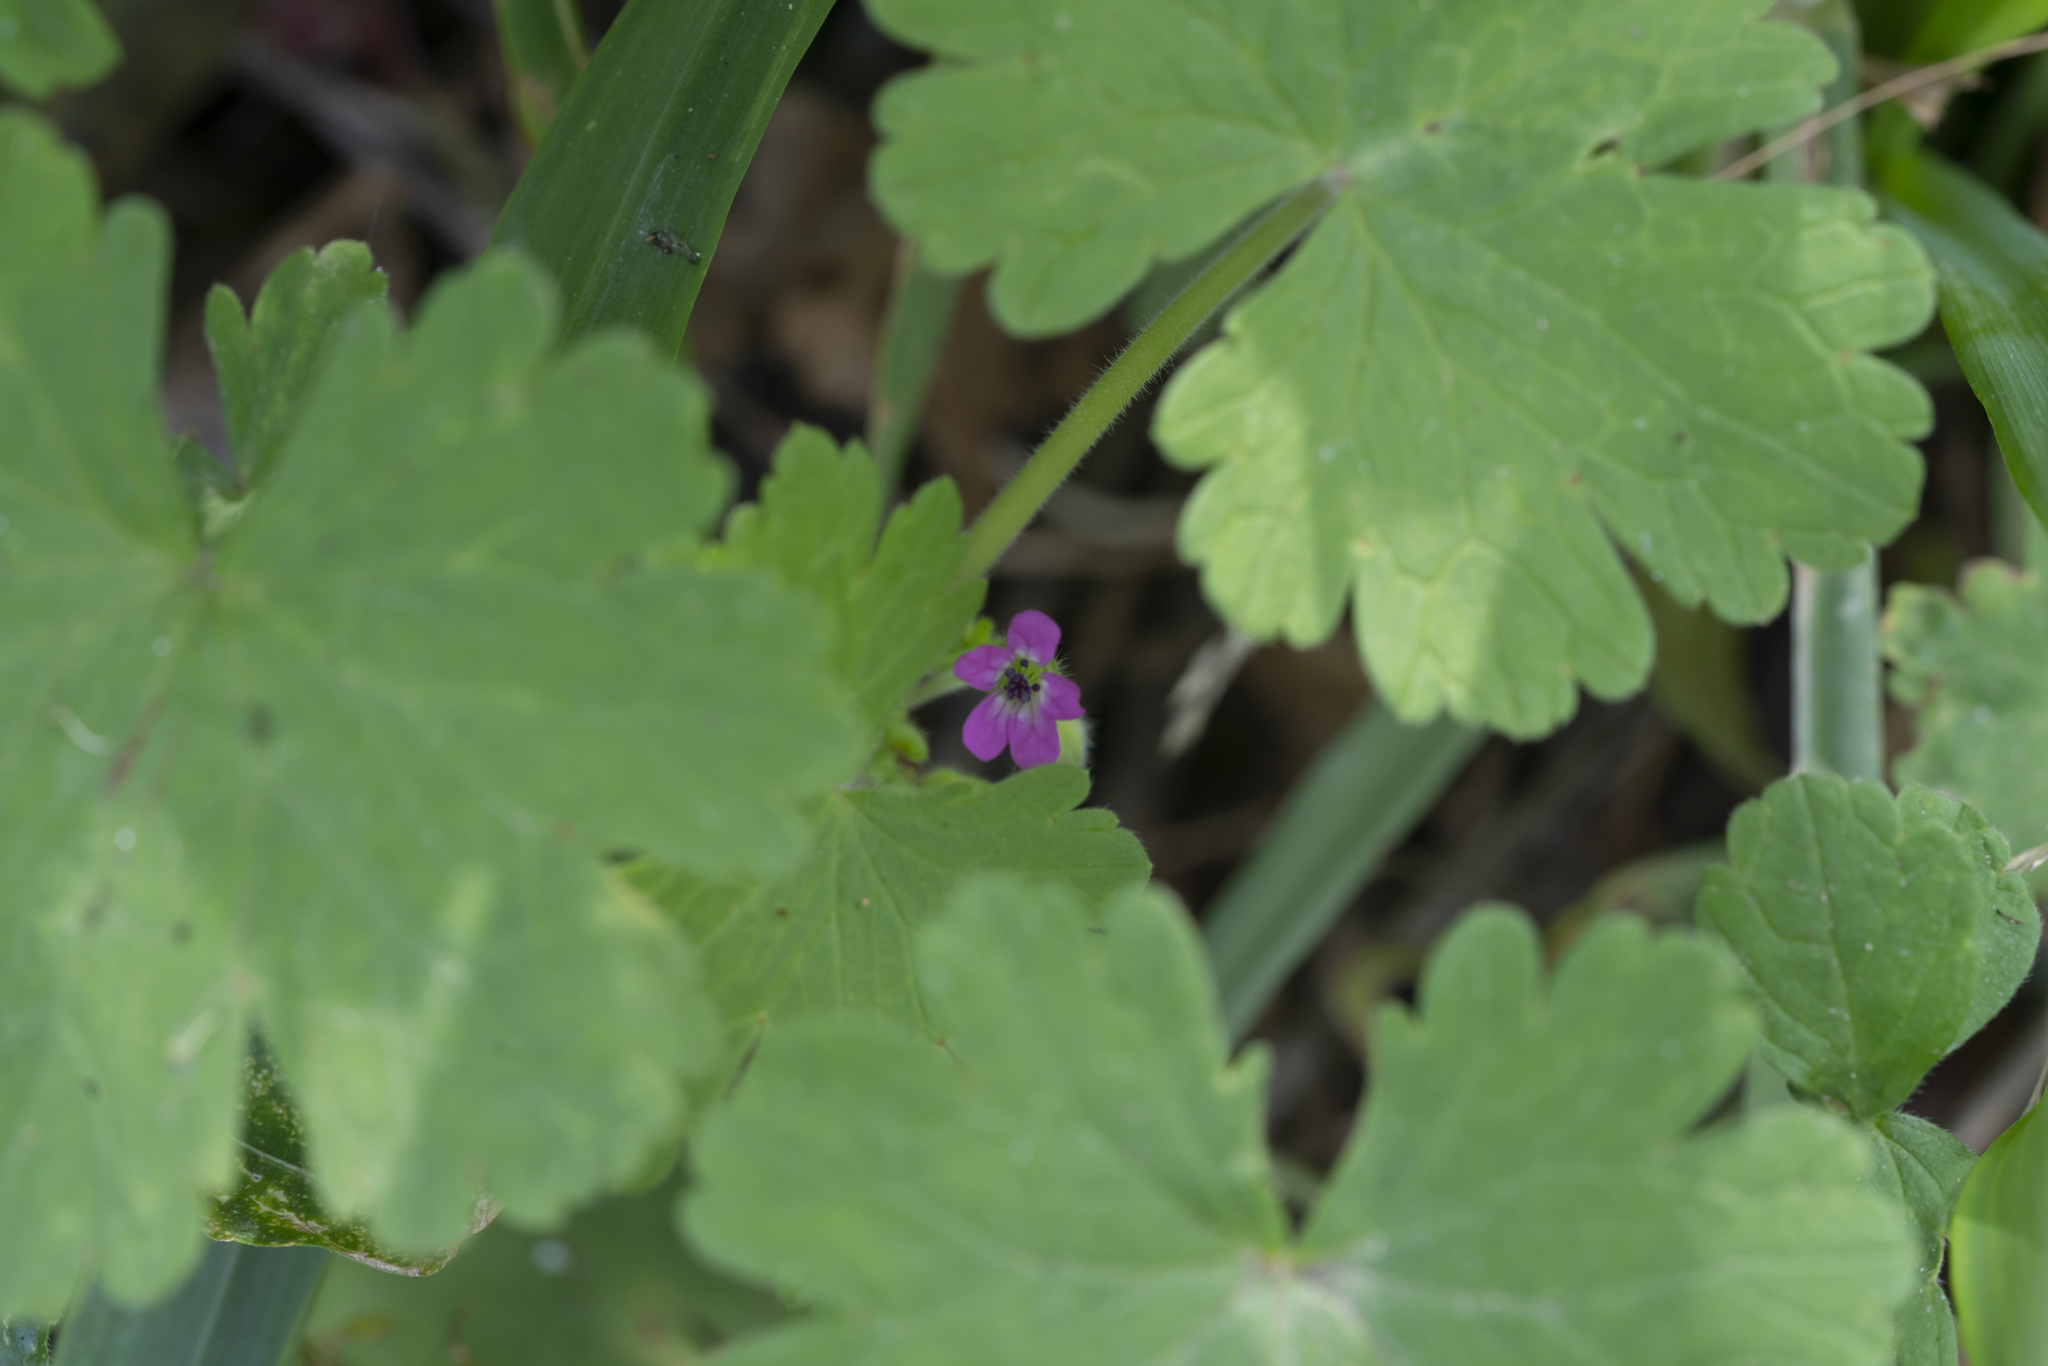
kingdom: Plantae
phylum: Tracheophyta
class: Magnoliopsida
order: Geraniales
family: Geraniaceae
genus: Geranium
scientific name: Geranium rotundifolium
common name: Round-leaved crane's-bill
